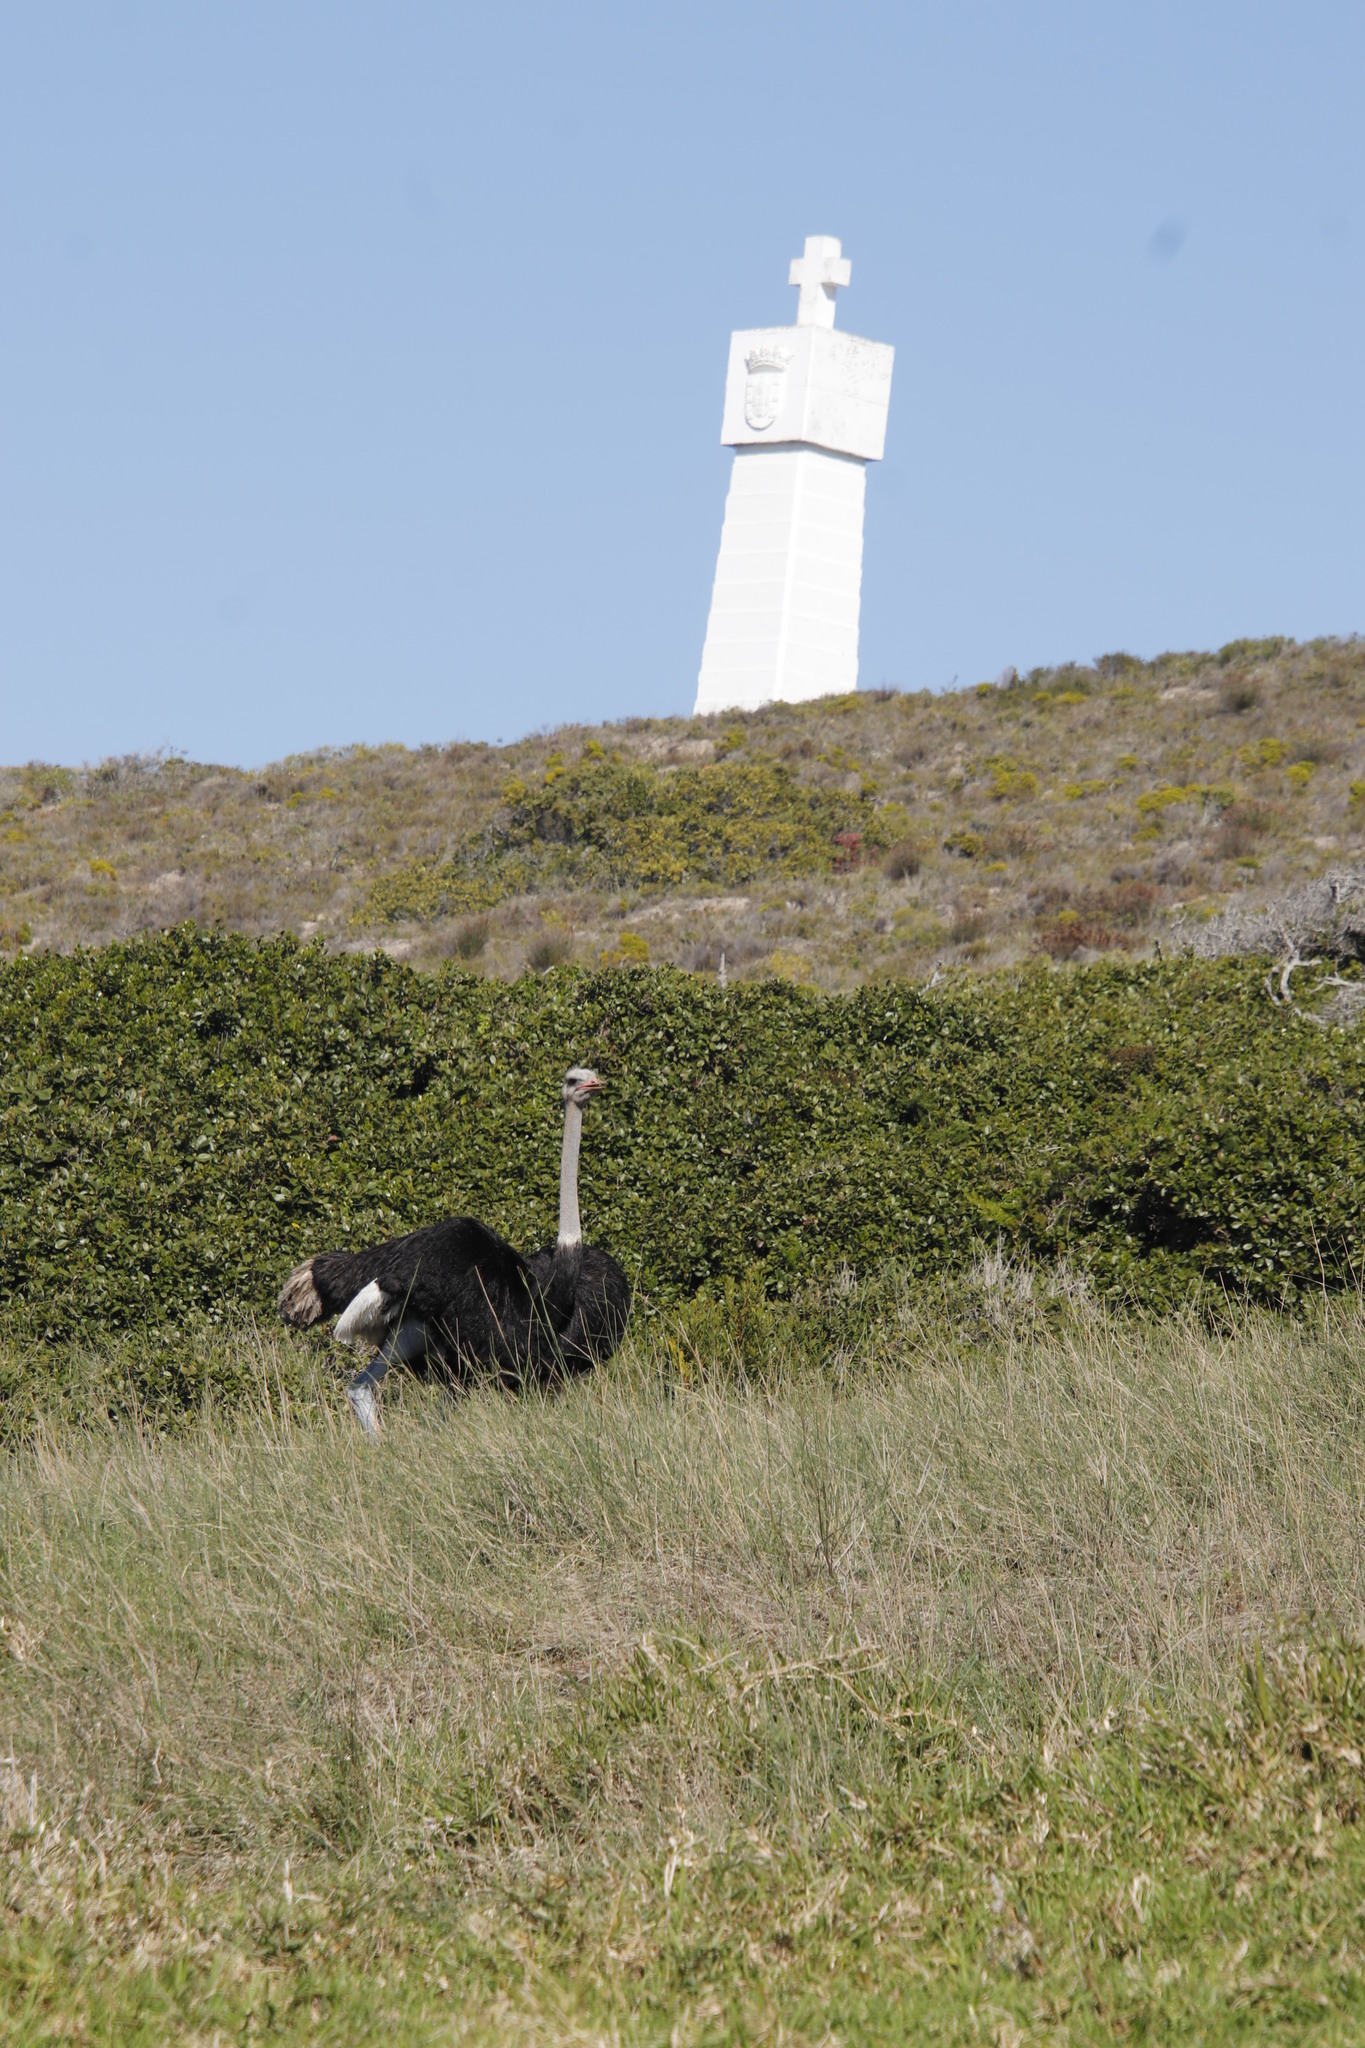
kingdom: Animalia
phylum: Chordata
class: Aves
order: Struthioniformes
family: Struthionidae
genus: Struthio
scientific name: Struthio camelus
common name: Common ostrich
